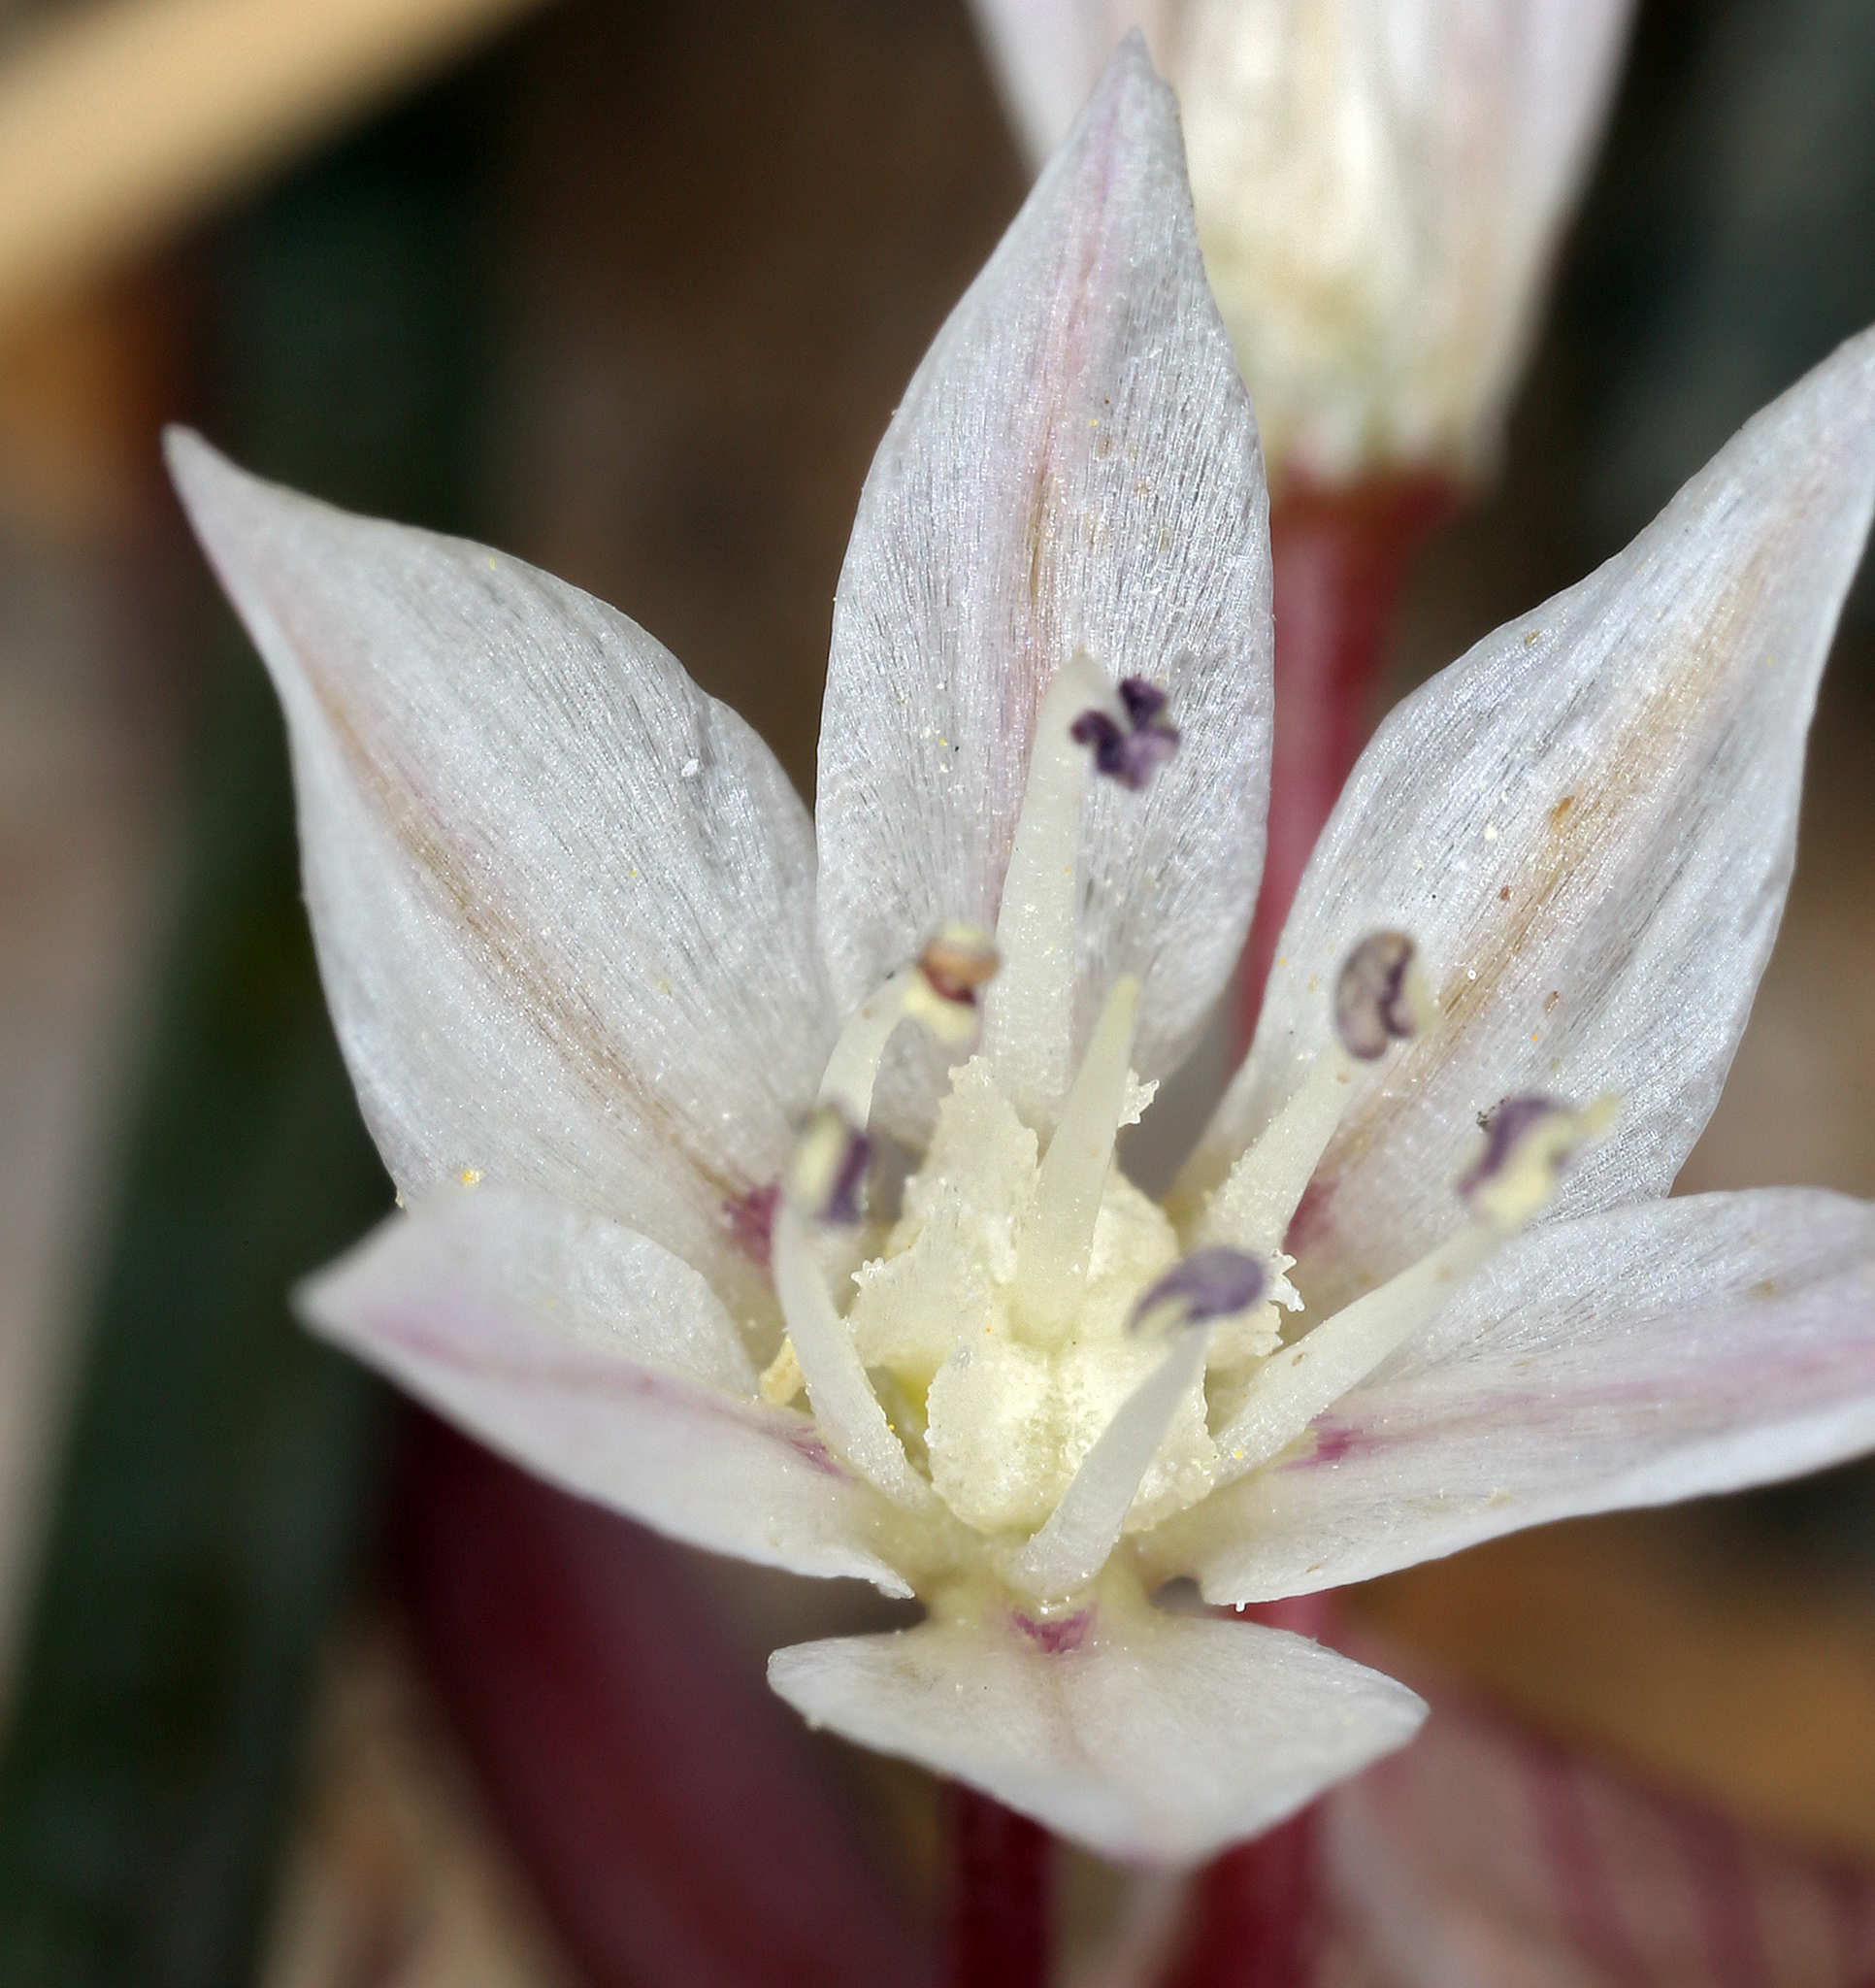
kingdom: Plantae
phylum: Tracheophyta
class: Liliopsida
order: Asparagales
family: Amaryllidaceae
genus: Allium
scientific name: Allium atrorubens
